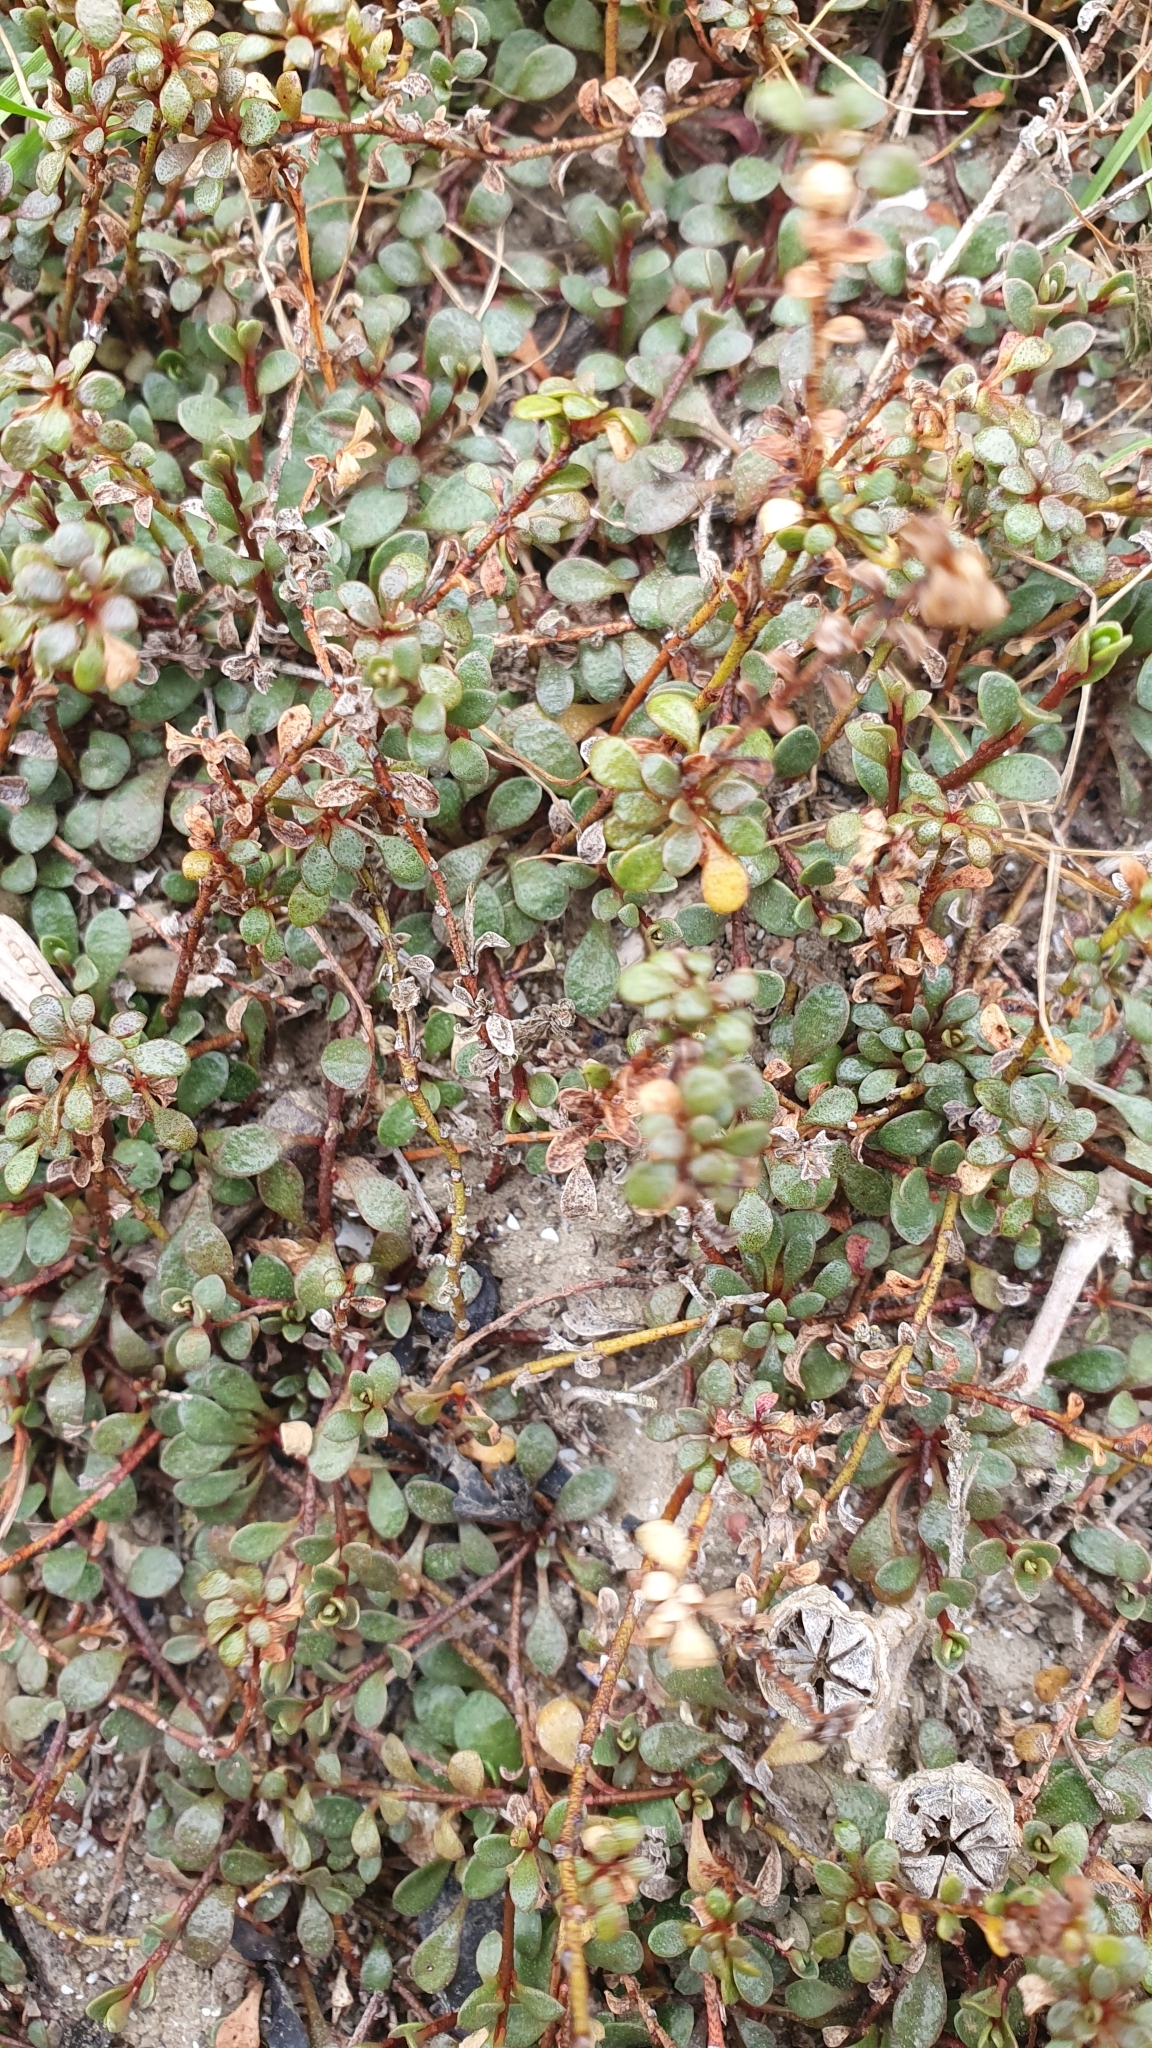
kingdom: Plantae
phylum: Tracheophyta
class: Magnoliopsida
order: Ericales
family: Primulaceae
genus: Samolus
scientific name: Samolus repens
